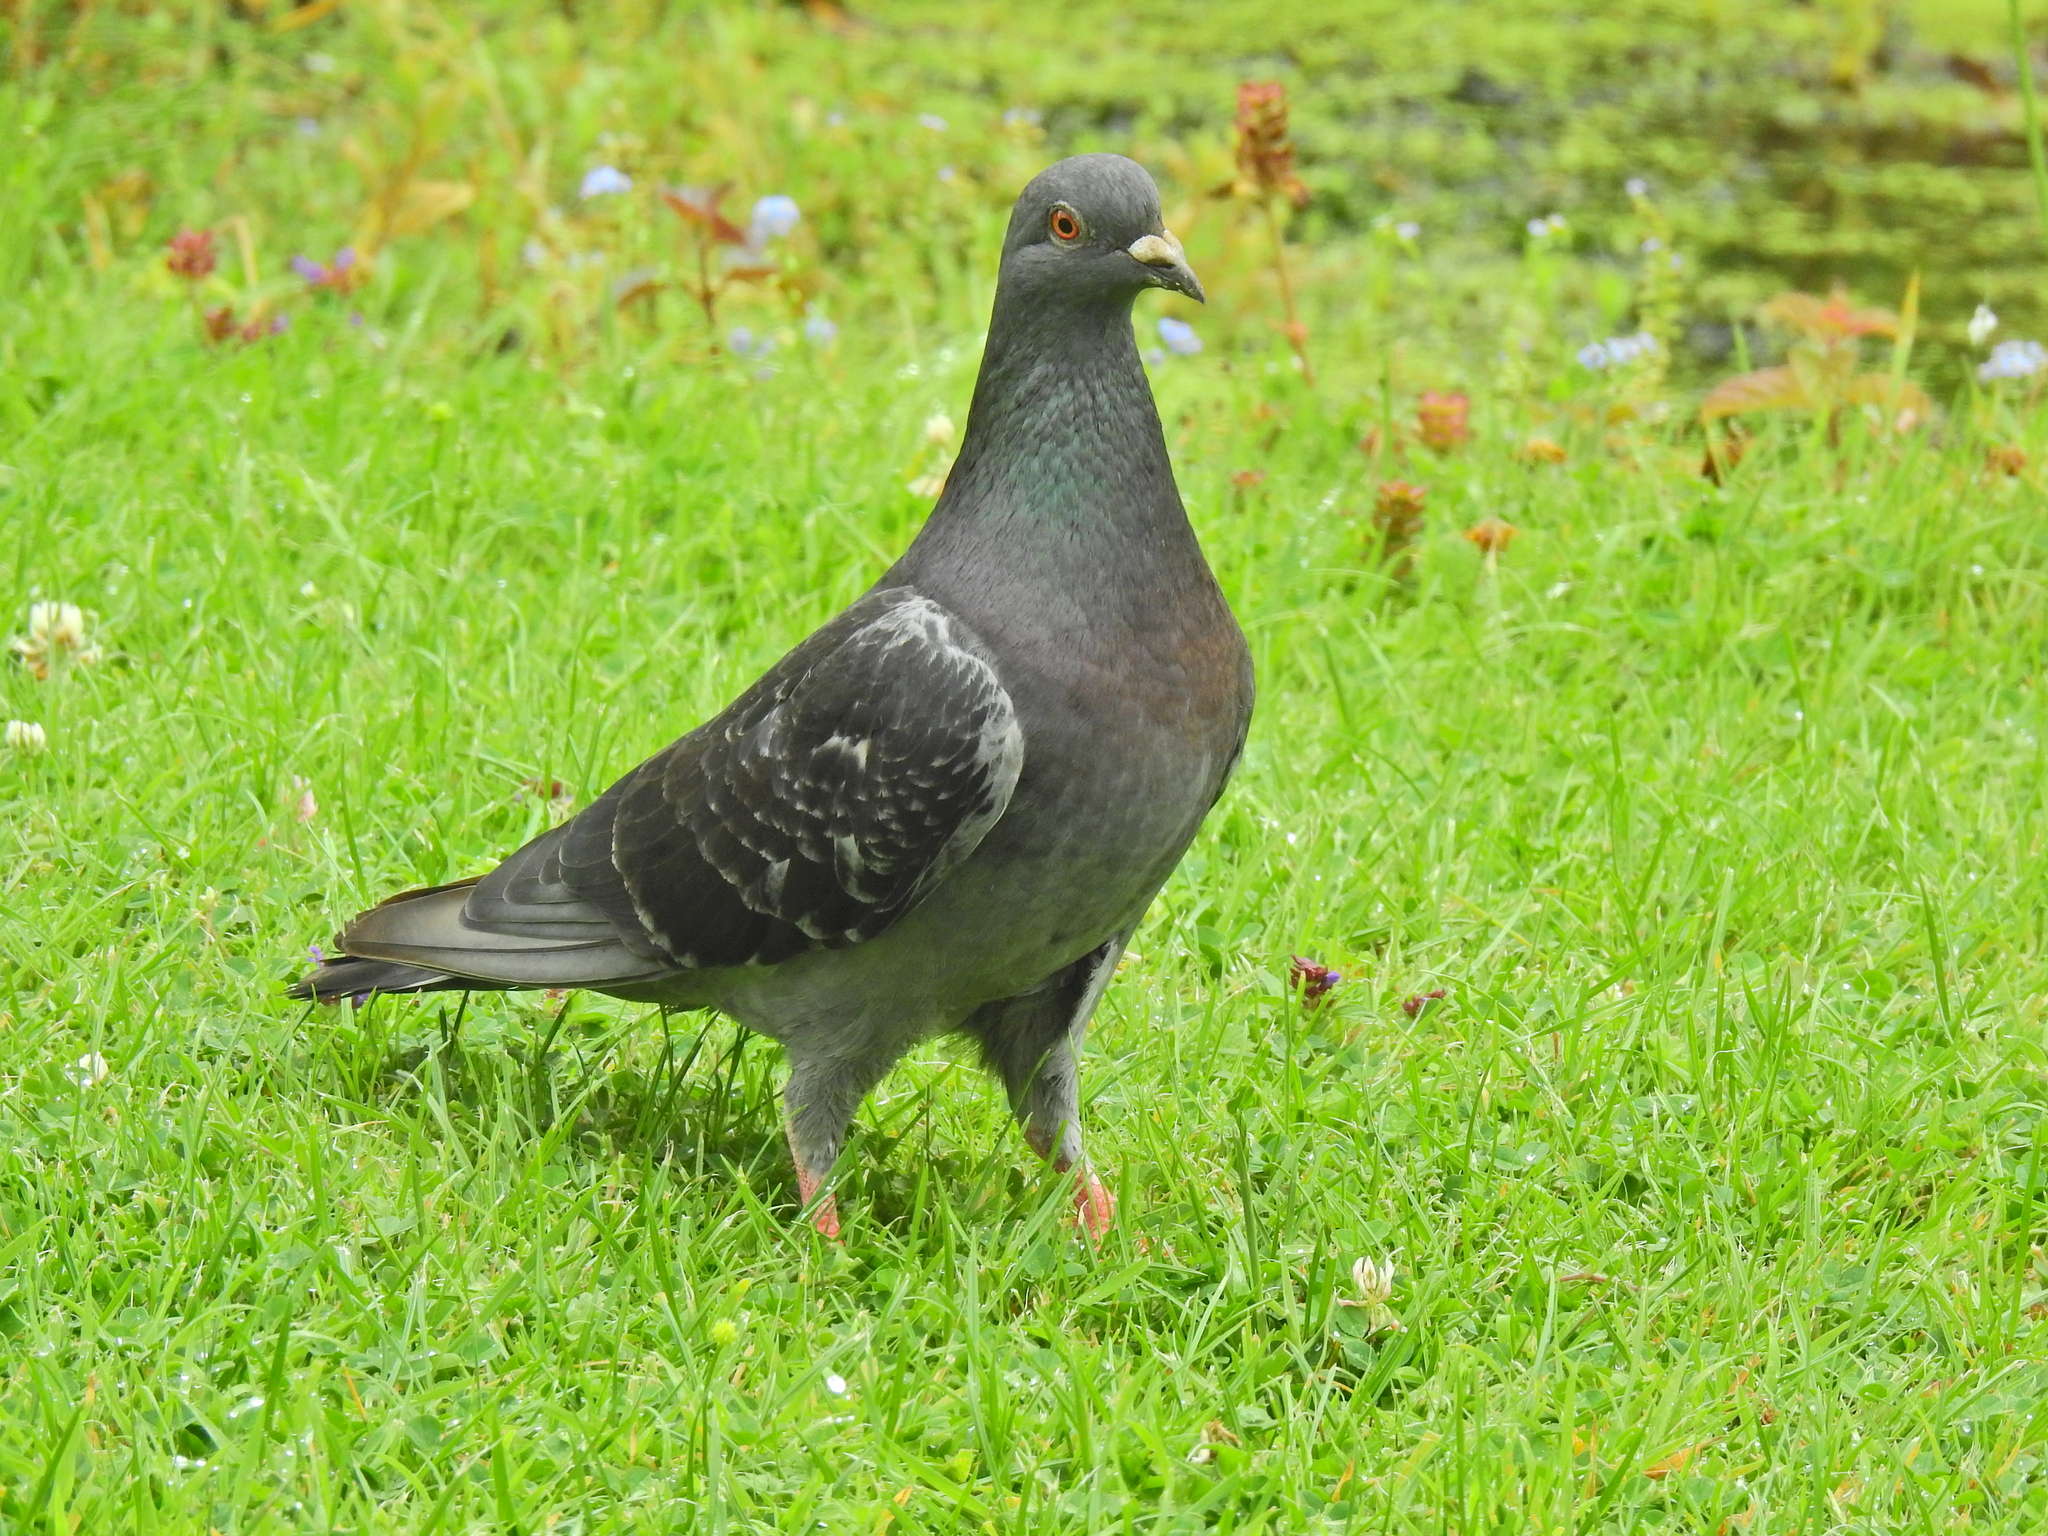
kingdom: Animalia
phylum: Chordata
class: Aves
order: Columbiformes
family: Columbidae
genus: Columba
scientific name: Columba livia
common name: Rock pigeon
